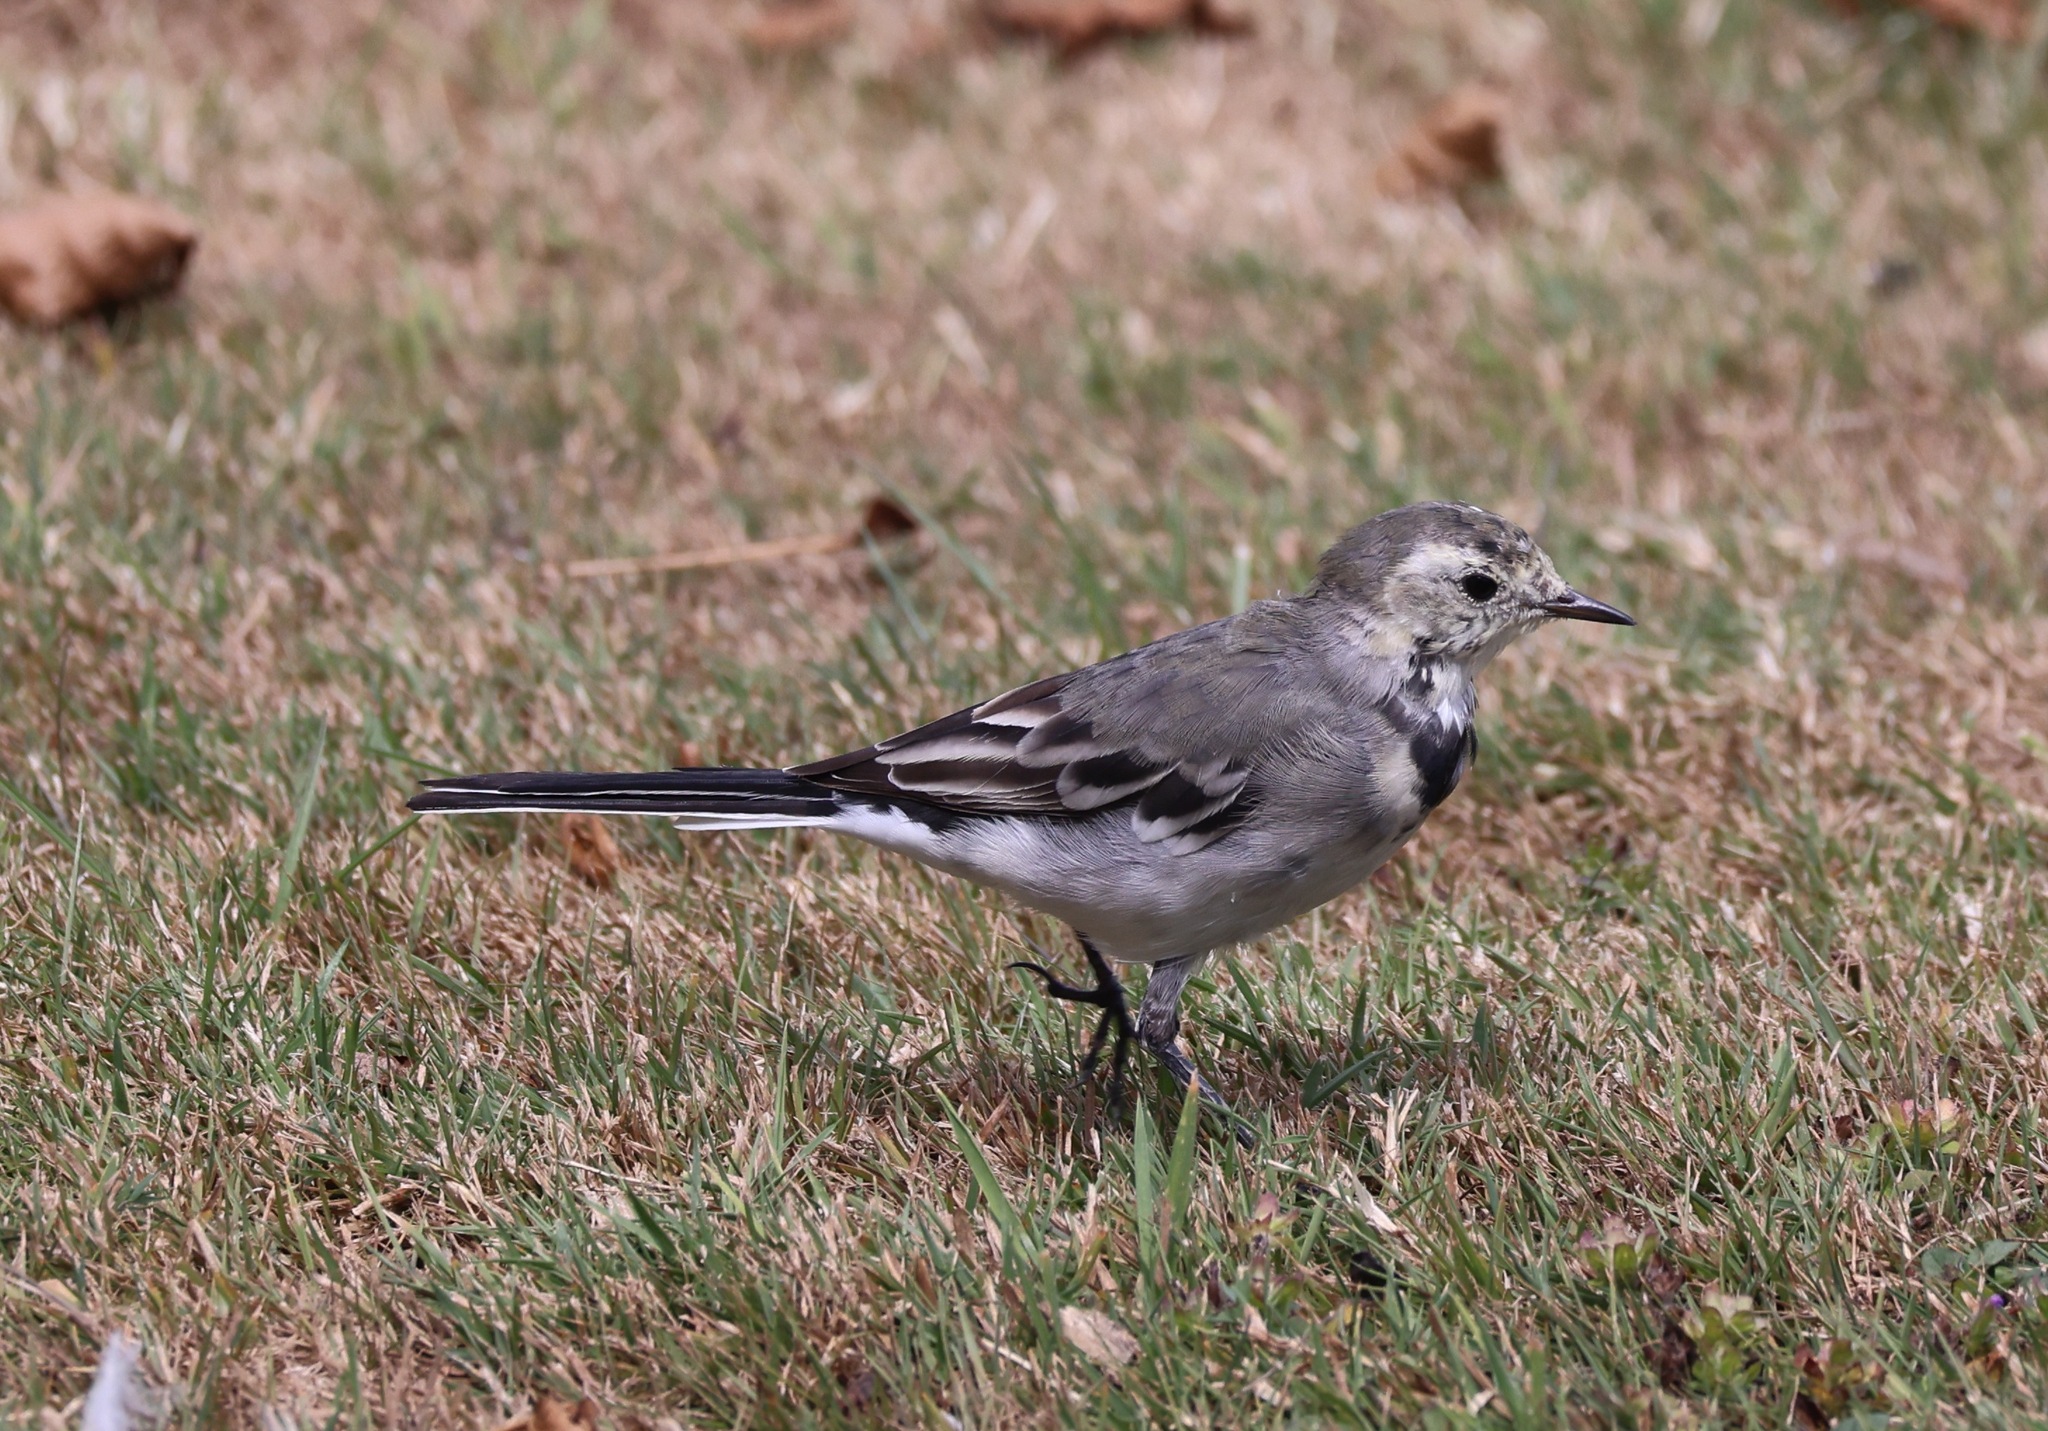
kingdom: Animalia
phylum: Chordata
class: Aves
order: Passeriformes
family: Motacillidae
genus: Motacilla
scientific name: Motacilla alba
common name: White wagtail
